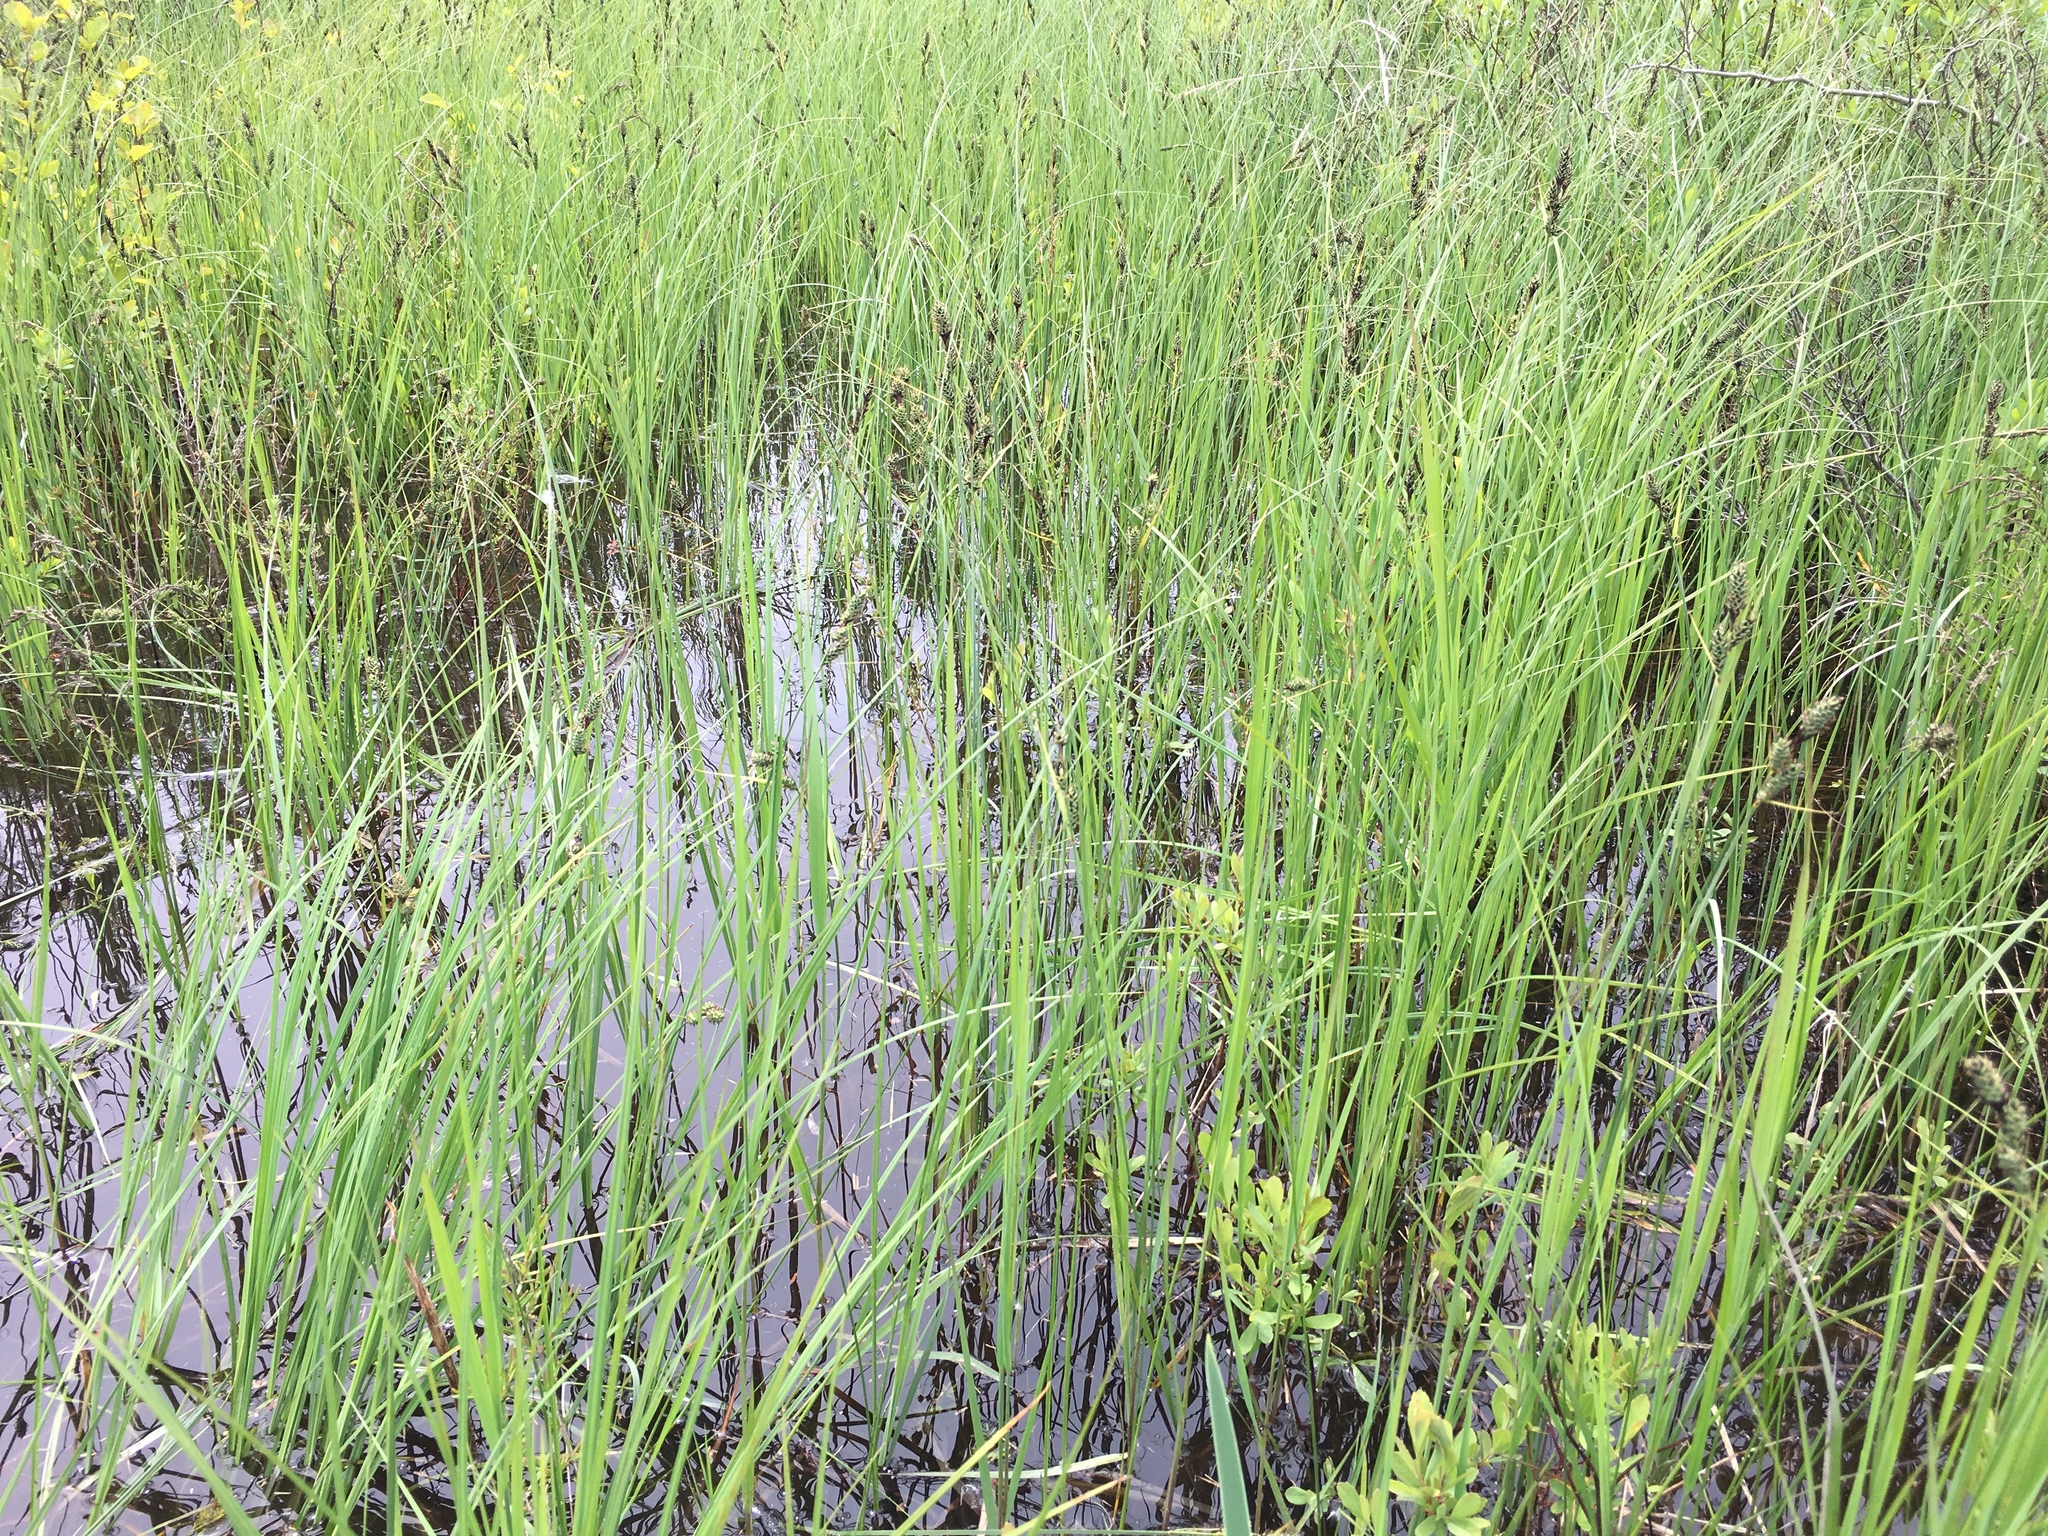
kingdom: Plantae
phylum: Tracheophyta
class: Liliopsida
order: Poales
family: Cyperaceae
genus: Carex
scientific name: Carex buxbaumii
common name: Club sedge
